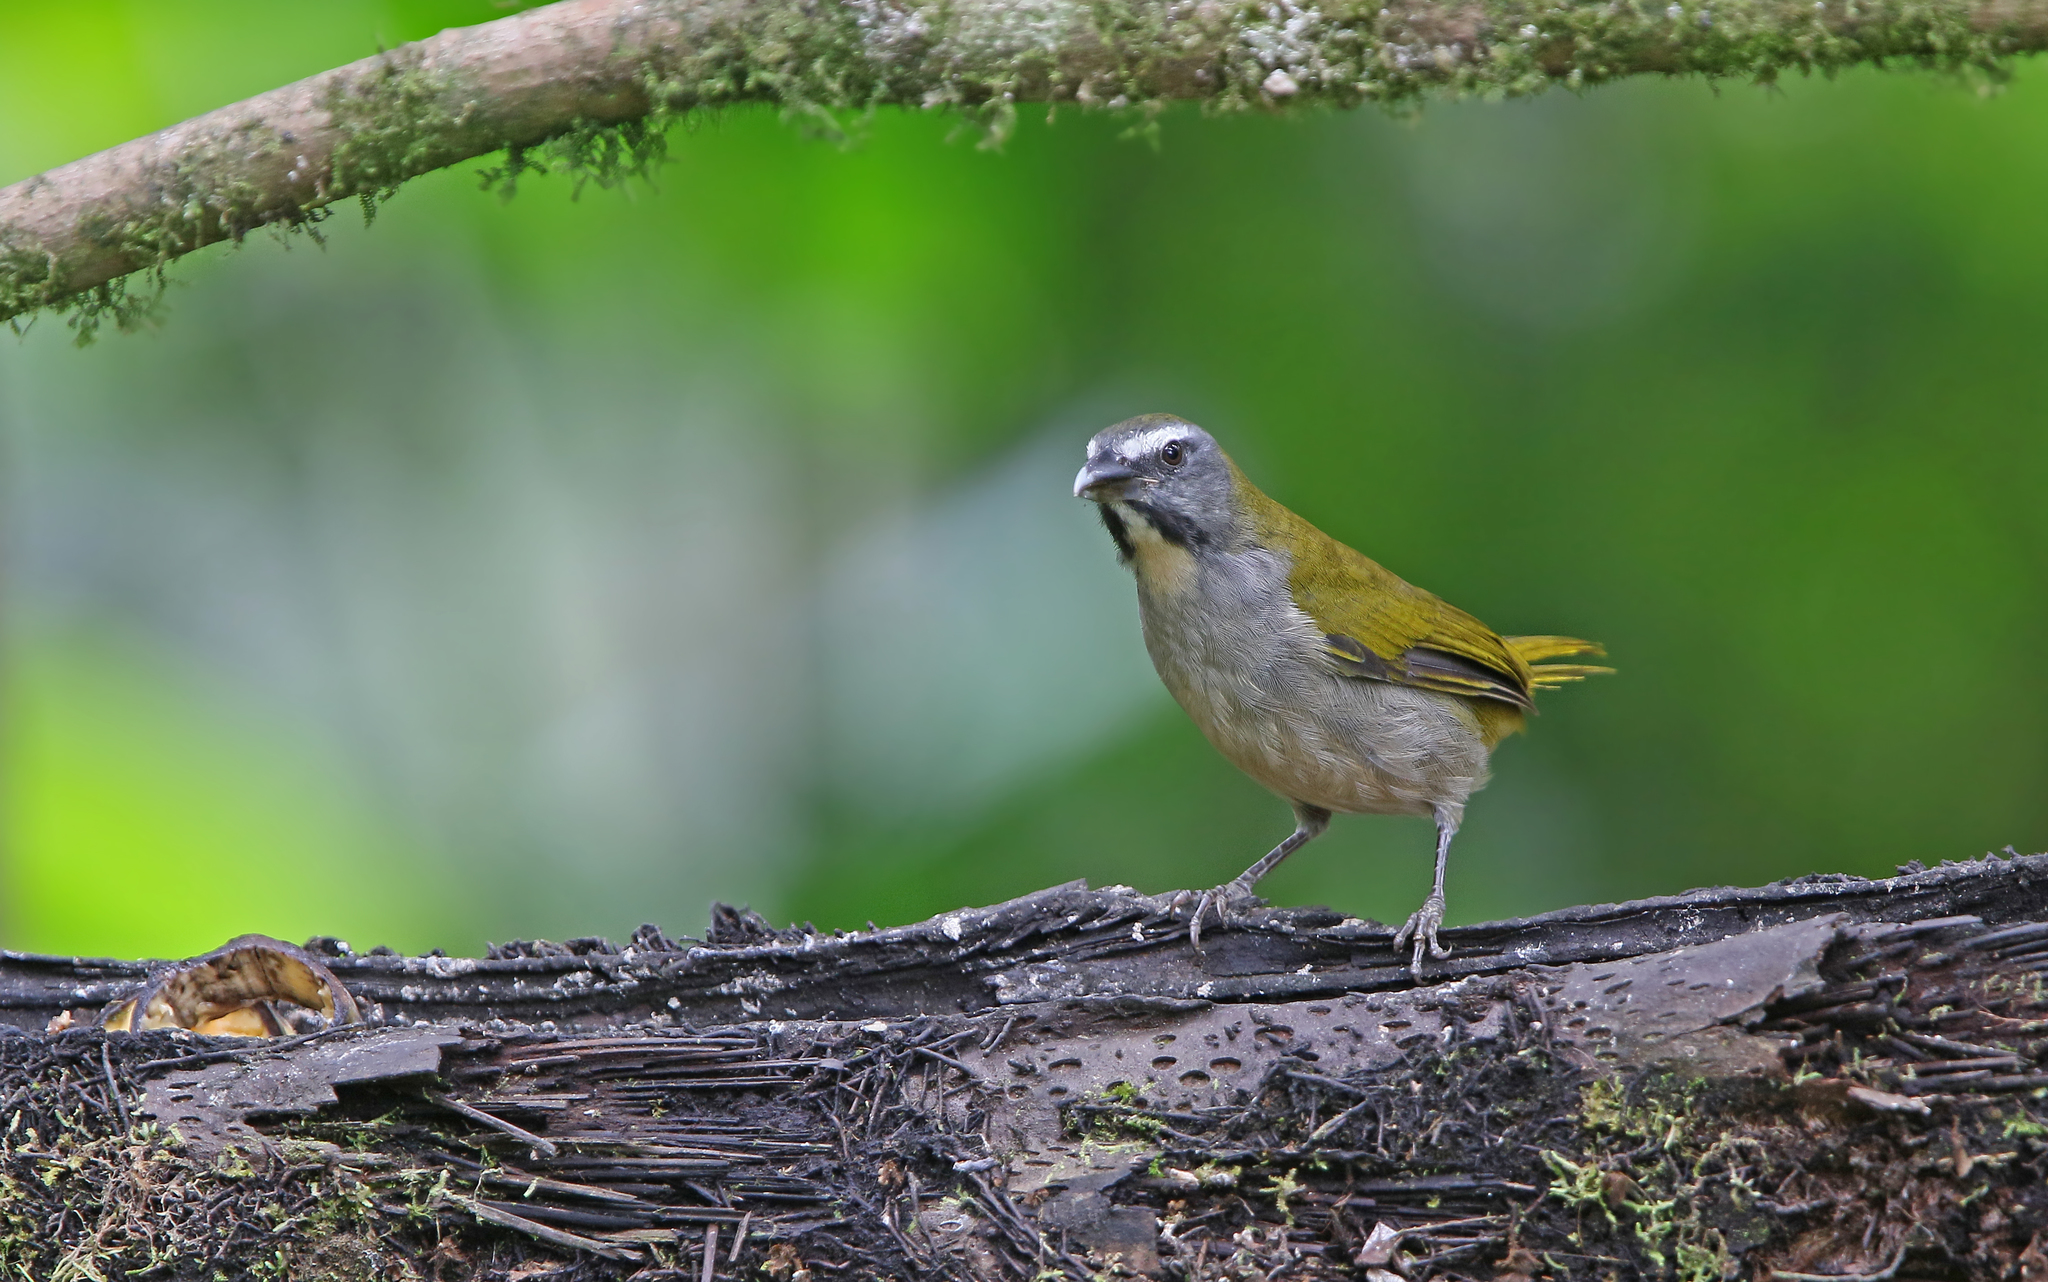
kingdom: Animalia
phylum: Chordata
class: Aves
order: Passeriformes
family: Thraupidae
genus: Saltator
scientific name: Saltator maximus
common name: Buff-throated saltator
